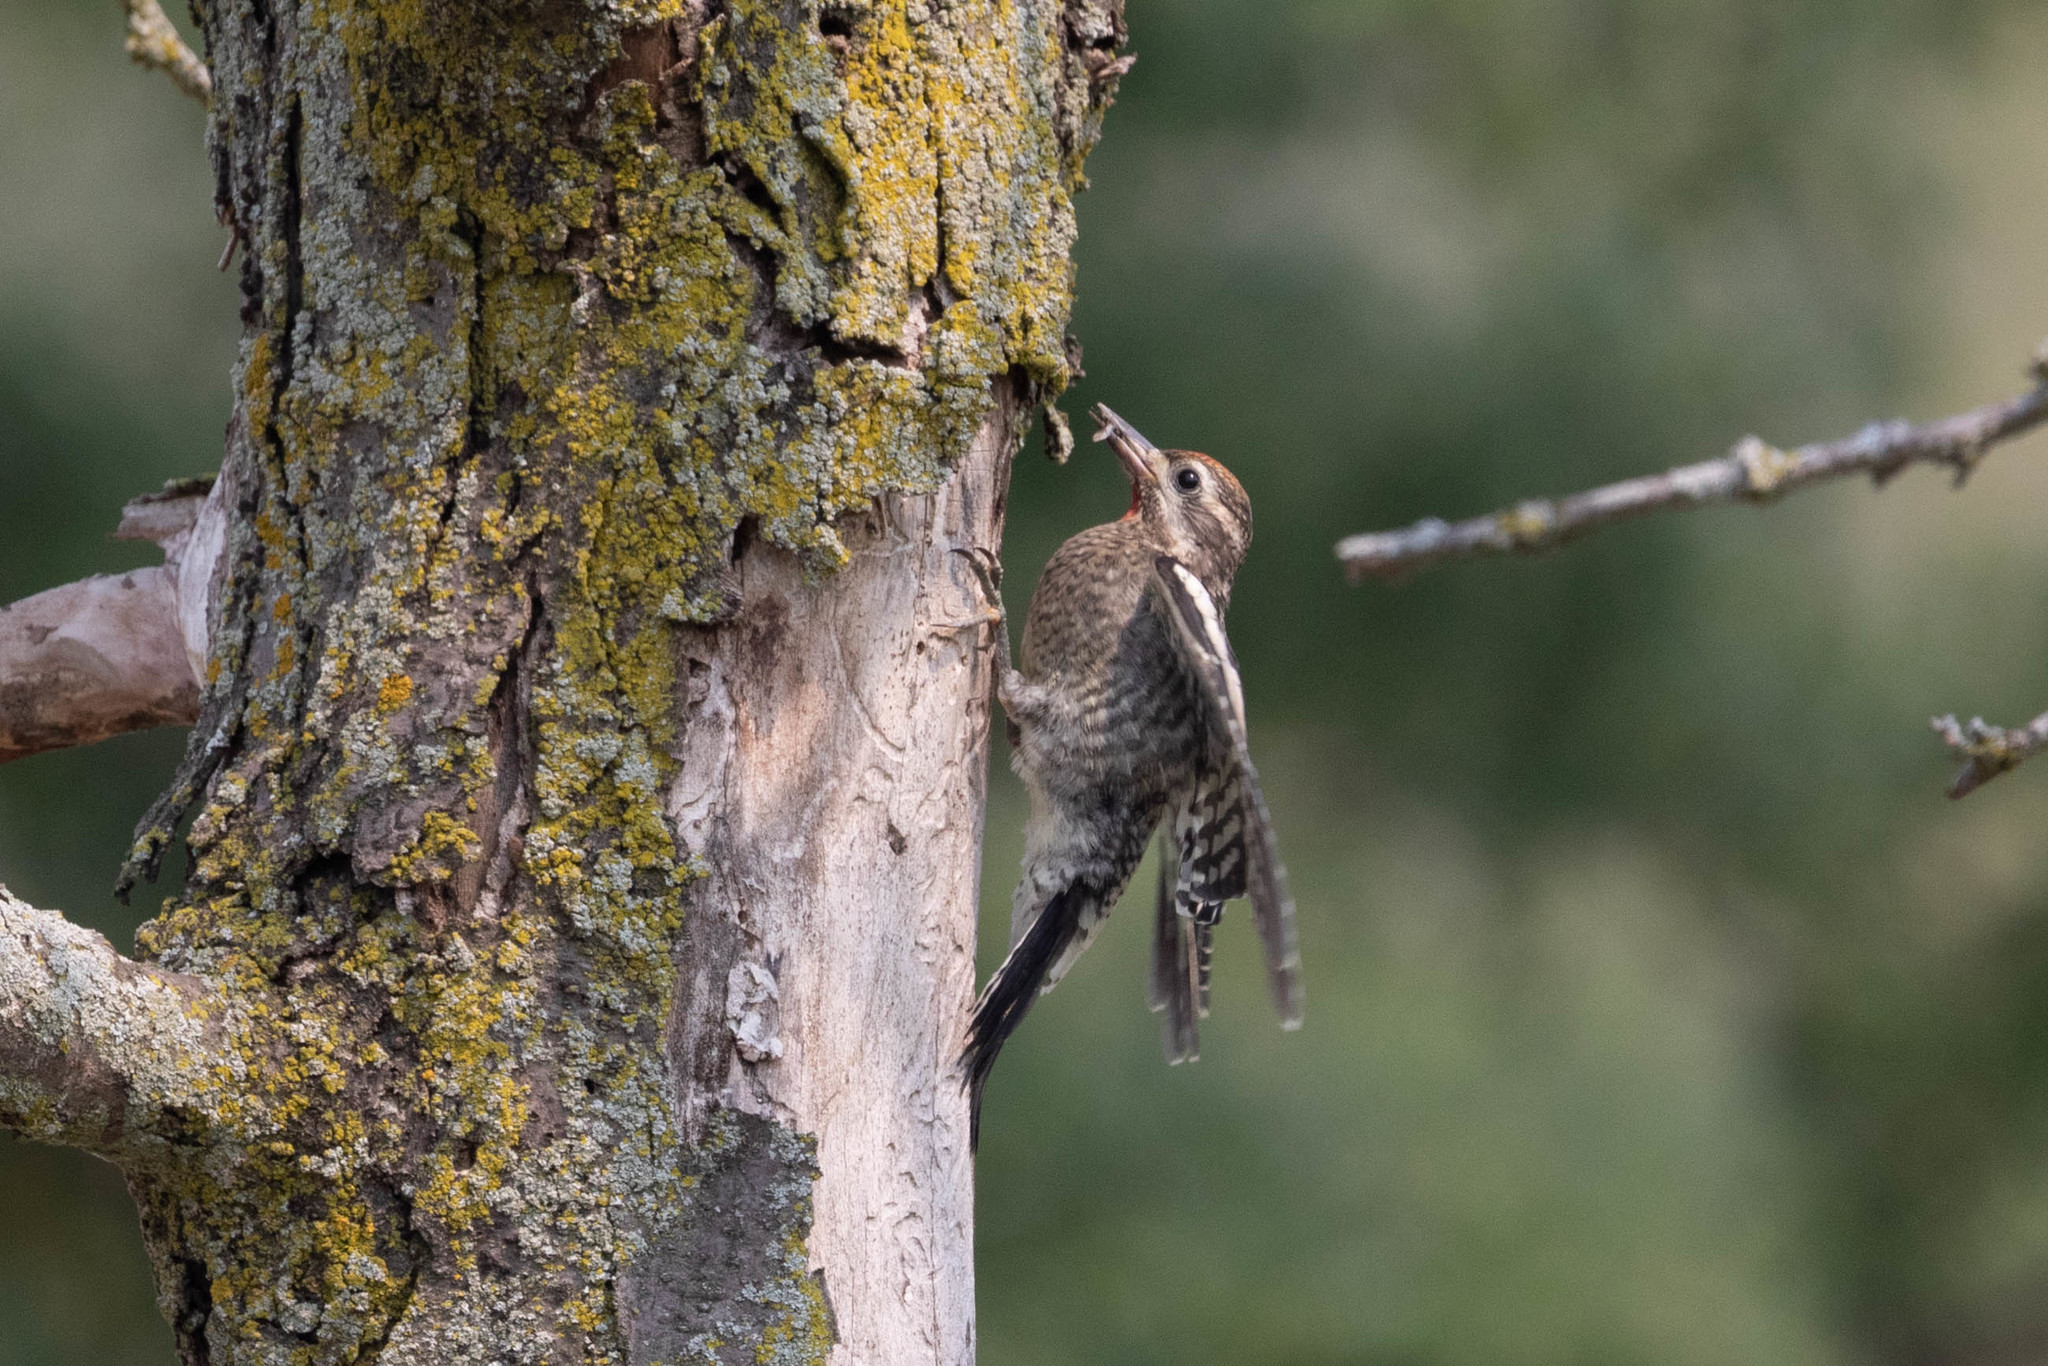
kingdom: Animalia
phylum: Chordata
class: Aves
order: Piciformes
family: Picidae
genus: Sphyrapicus
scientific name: Sphyrapicus varius
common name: Yellow-bellied sapsucker
